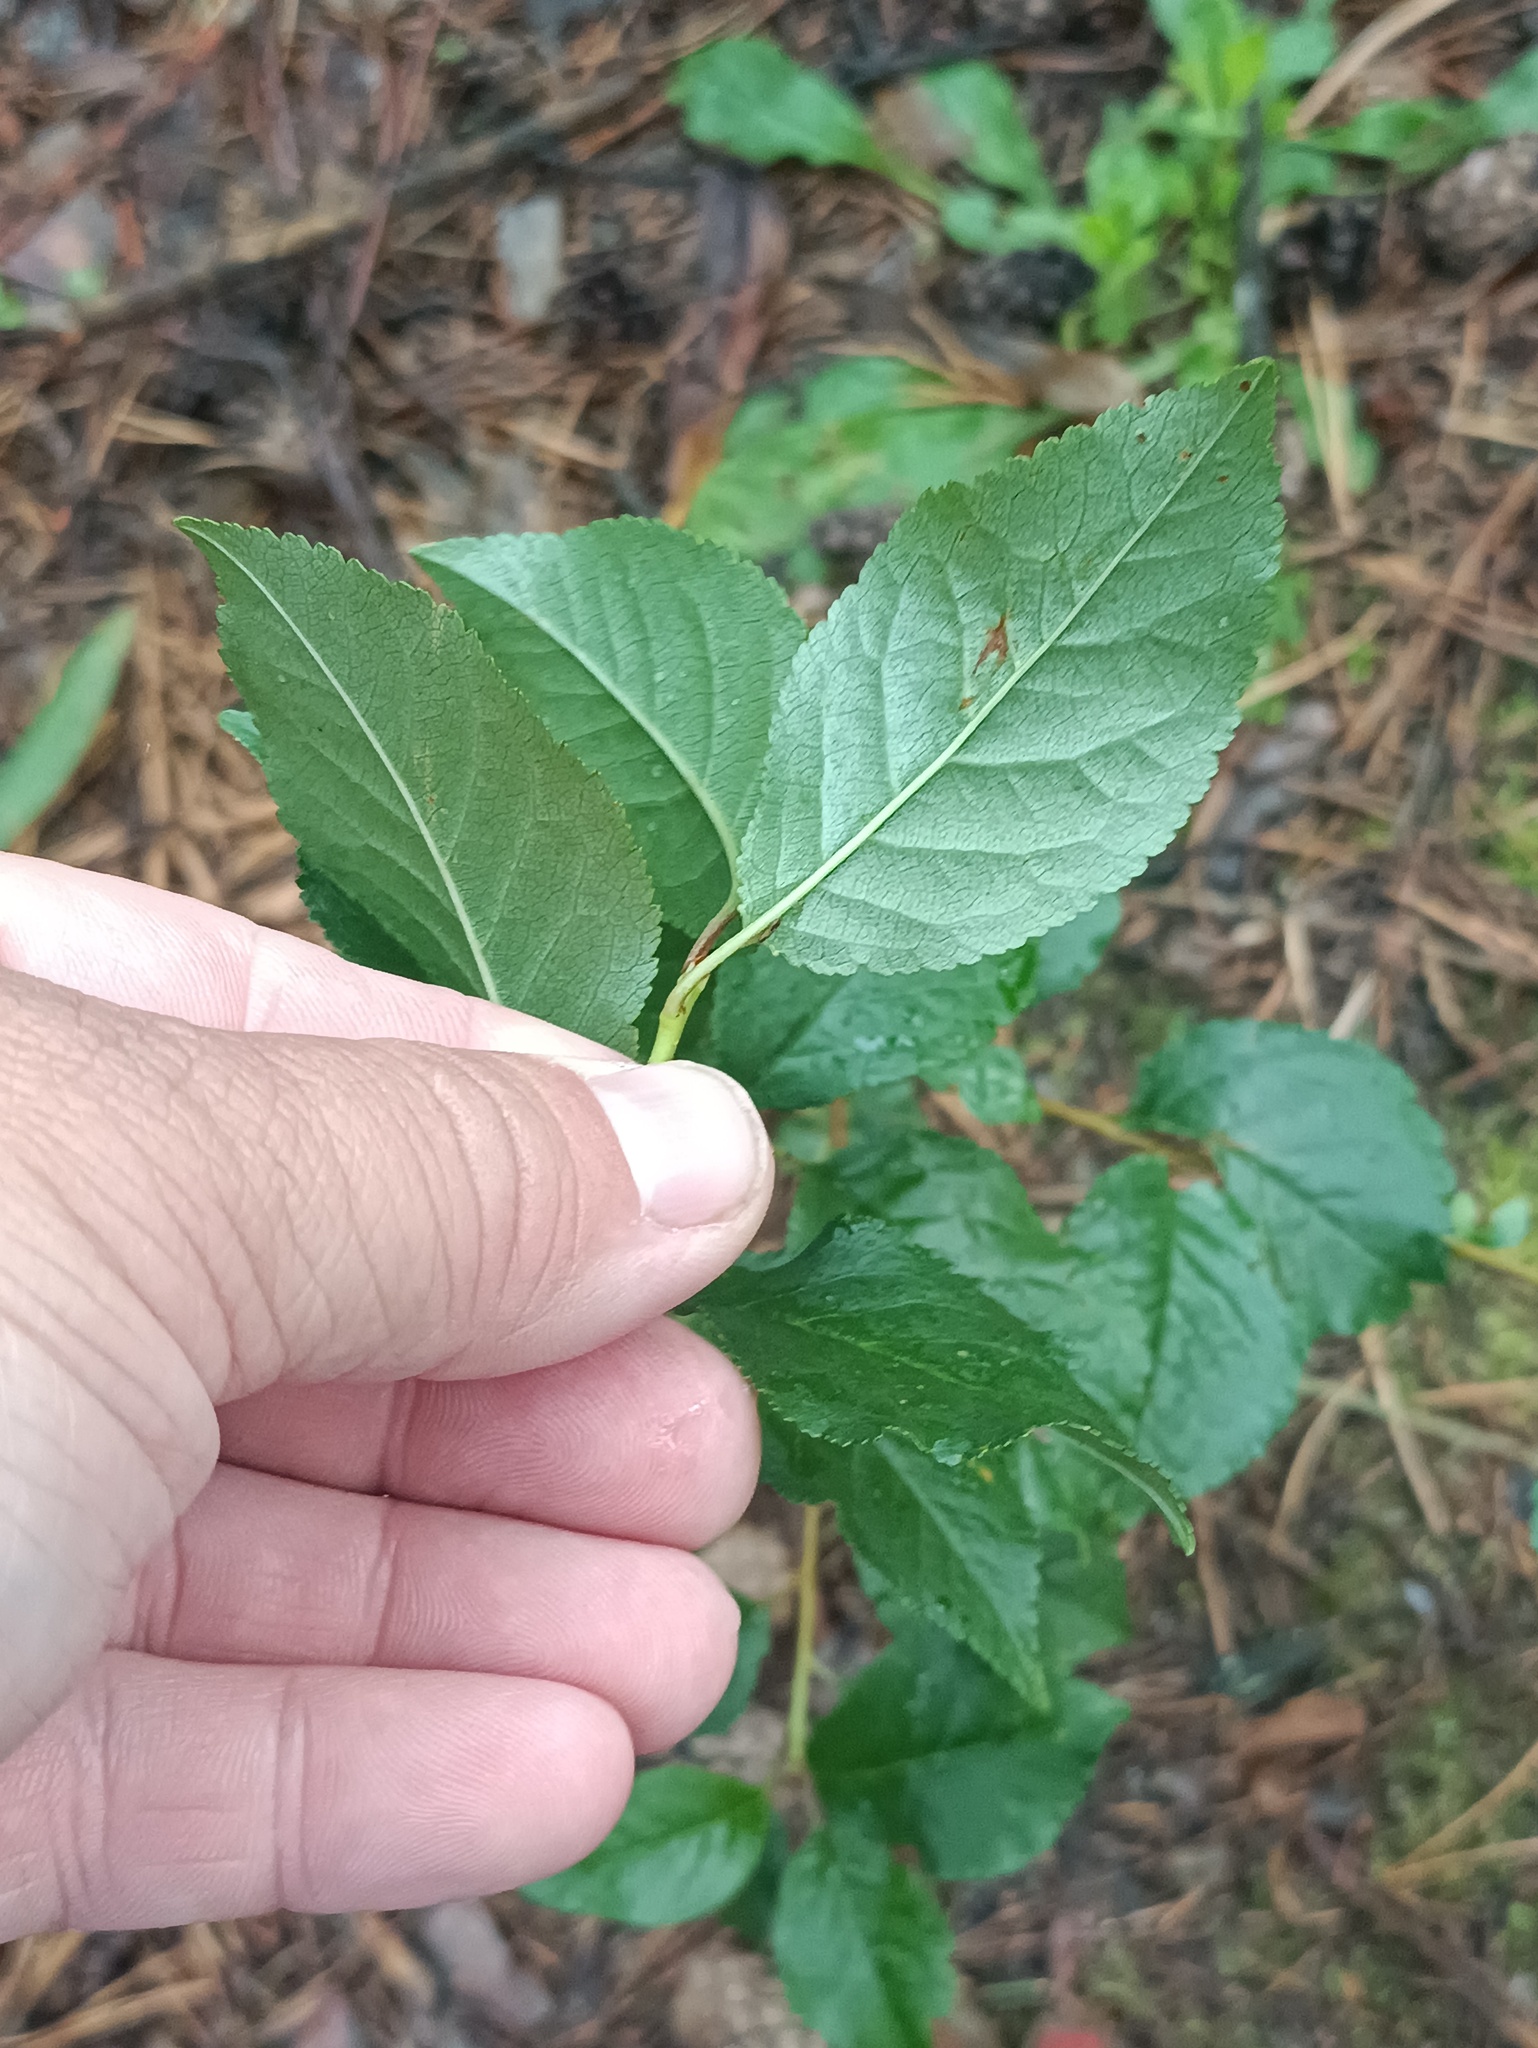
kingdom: Plantae
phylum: Tracheophyta
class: Magnoliopsida
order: Rosales
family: Rosaceae
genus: Prunus
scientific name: Prunus cerasus
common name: Morello cherry
